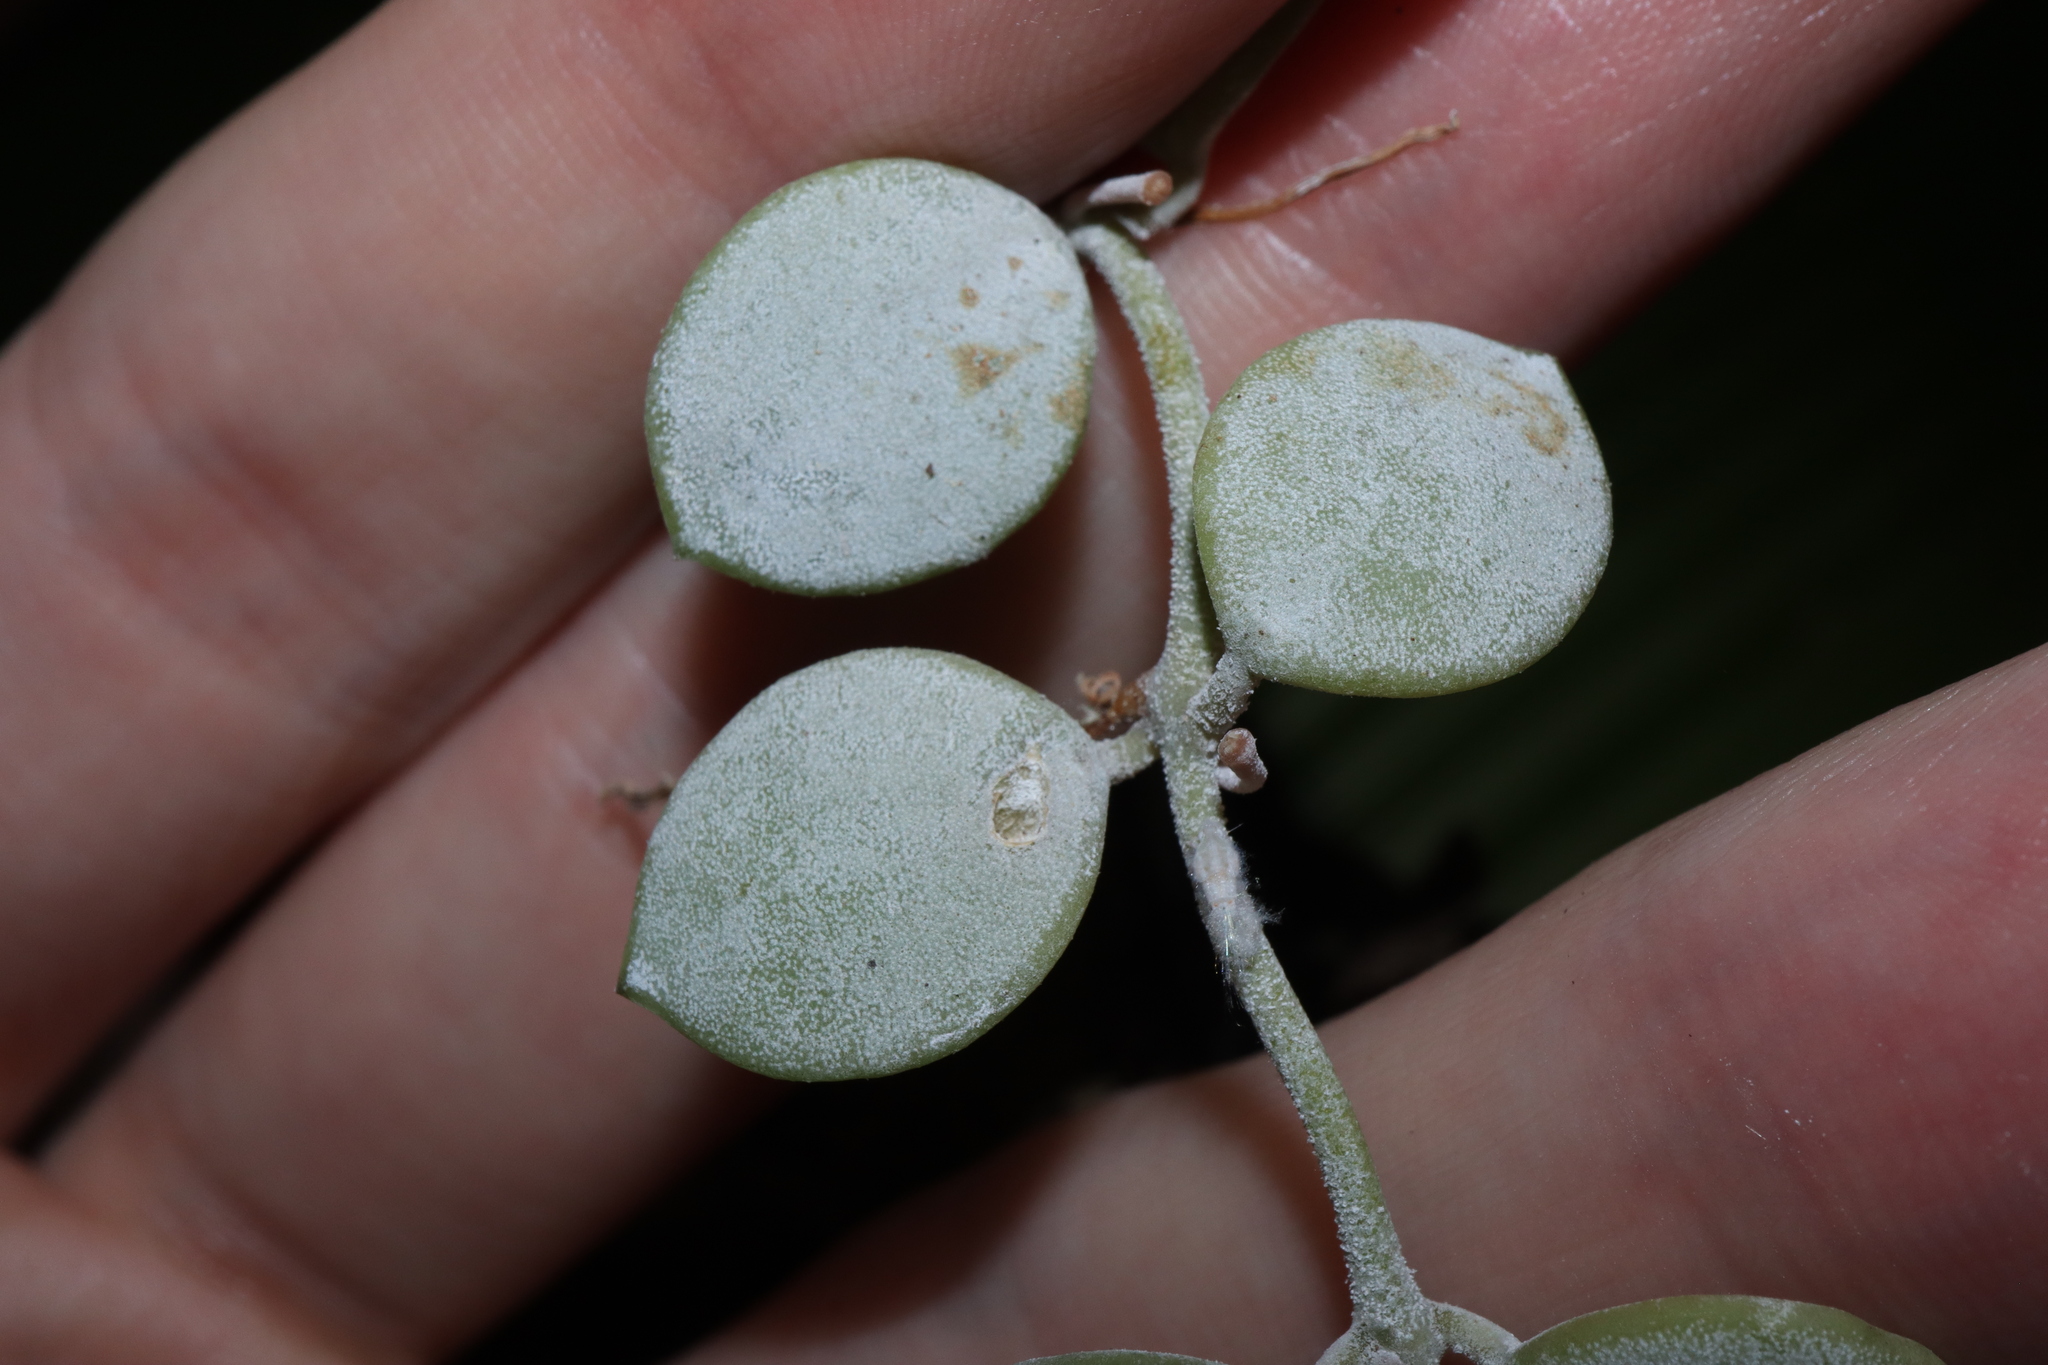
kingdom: Plantae
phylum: Tracheophyta
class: Magnoliopsida
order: Gentianales
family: Apocynaceae
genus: Dischidia
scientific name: Dischidia nummularia
